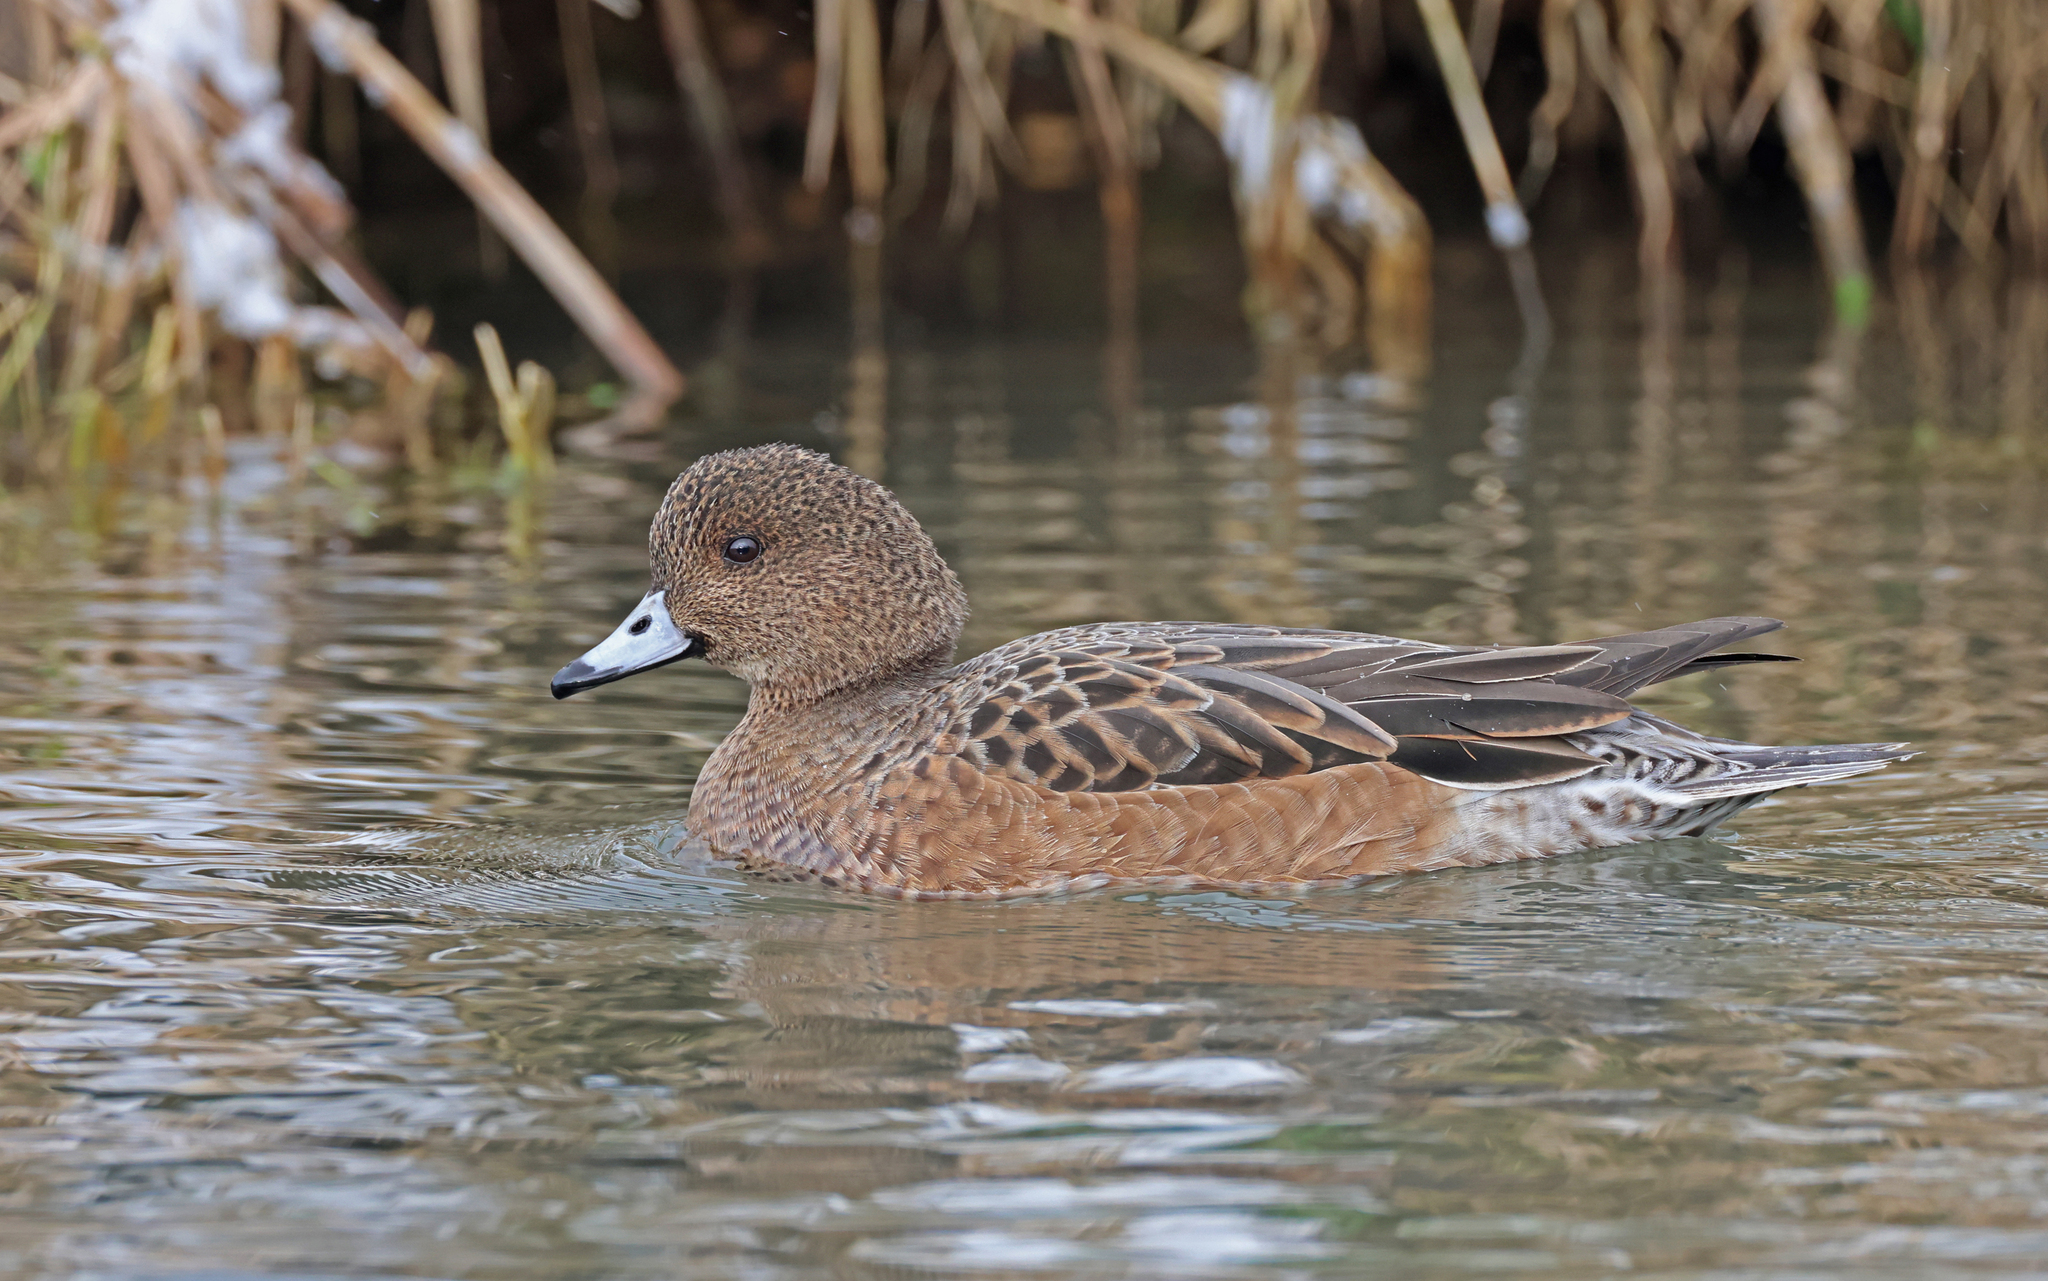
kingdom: Animalia
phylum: Chordata
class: Aves
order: Anseriformes
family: Anatidae
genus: Mareca
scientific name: Mareca penelope
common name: Eurasian wigeon
